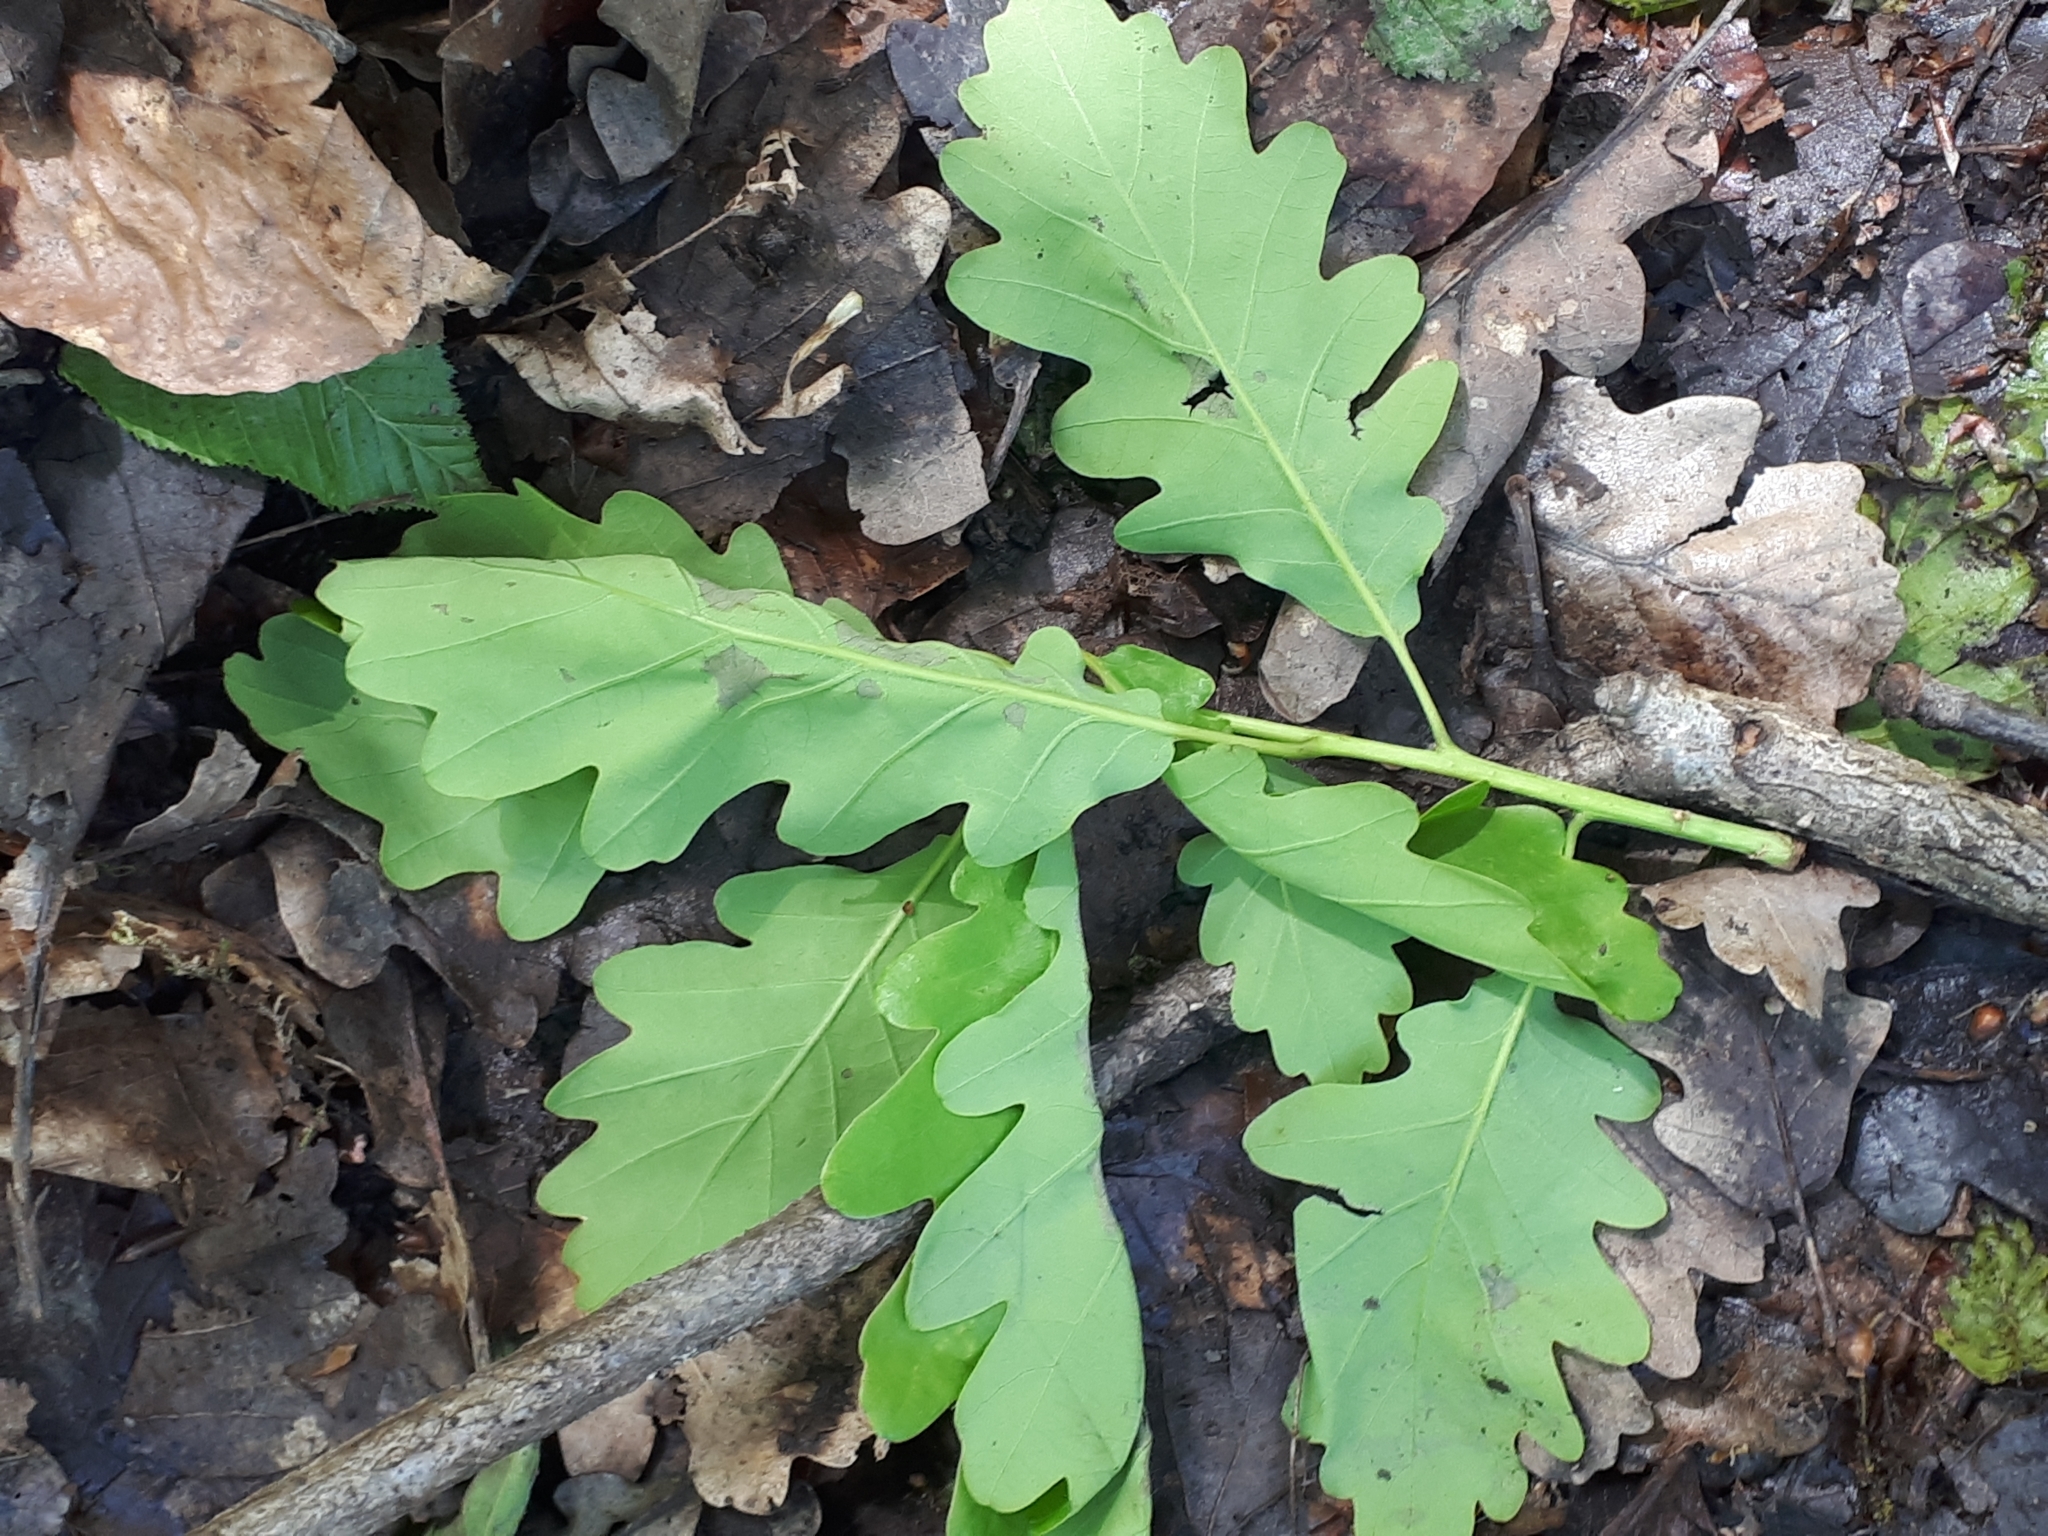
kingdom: Plantae
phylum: Tracheophyta
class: Magnoliopsida
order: Fagales
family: Fagaceae
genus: Quercus
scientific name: Quercus petraea
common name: Sessile oak
